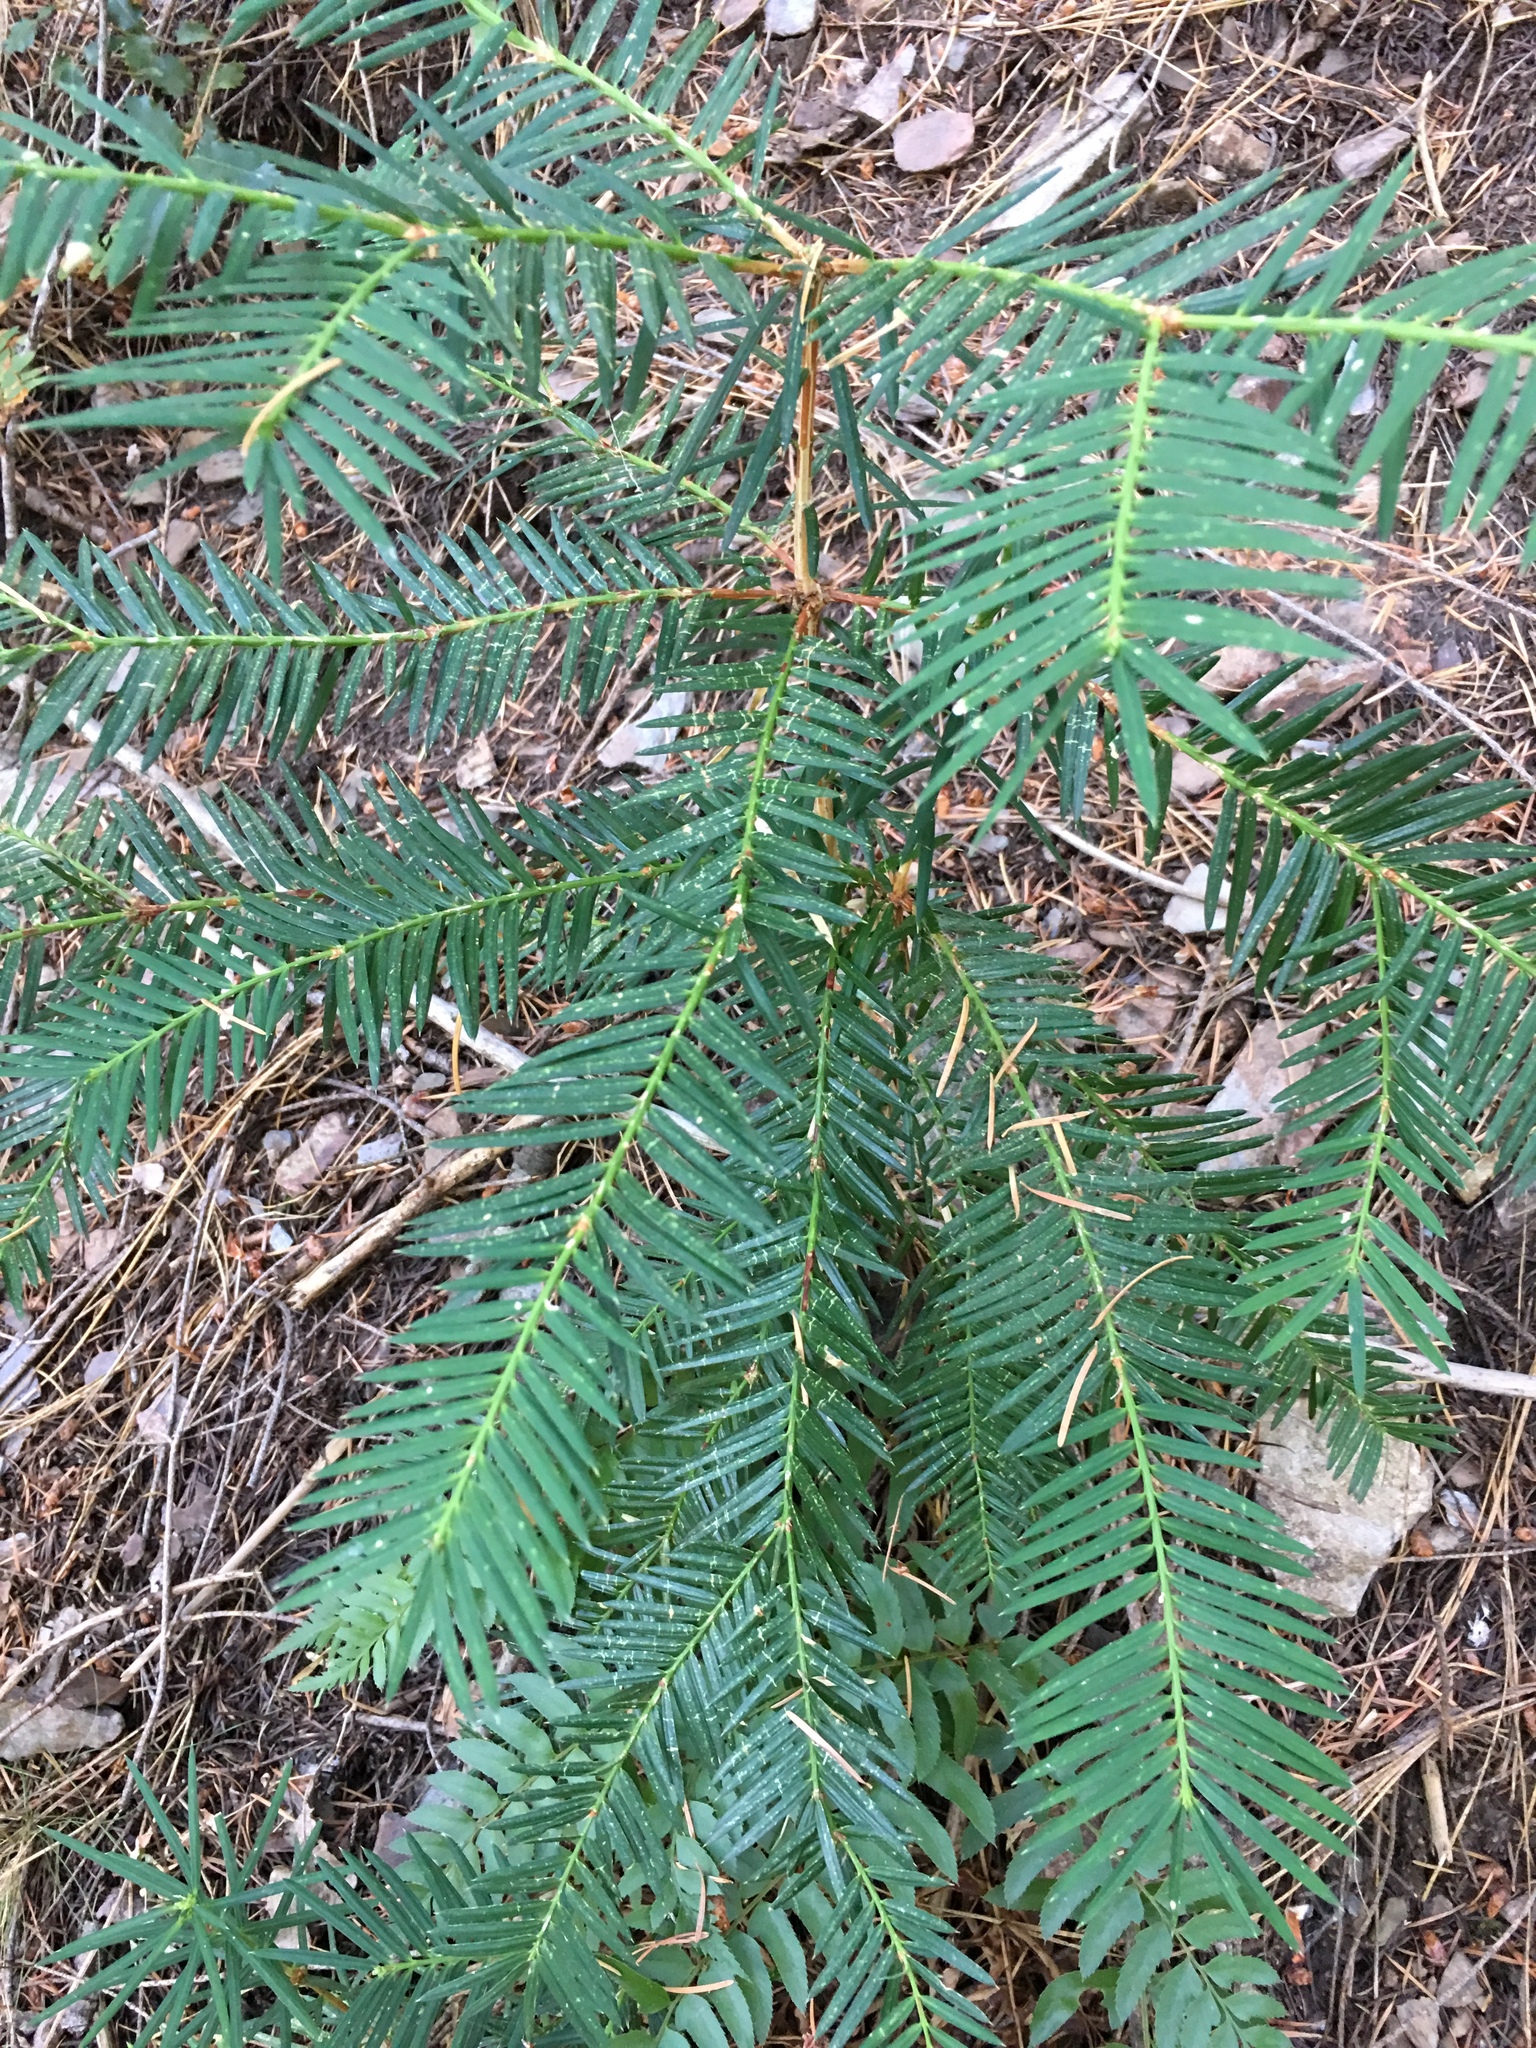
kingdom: Plantae
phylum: Tracheophyta
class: Pinopsida
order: Pinales
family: Taxaceae
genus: Torreya
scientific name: Torreya californica
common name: California torreya
